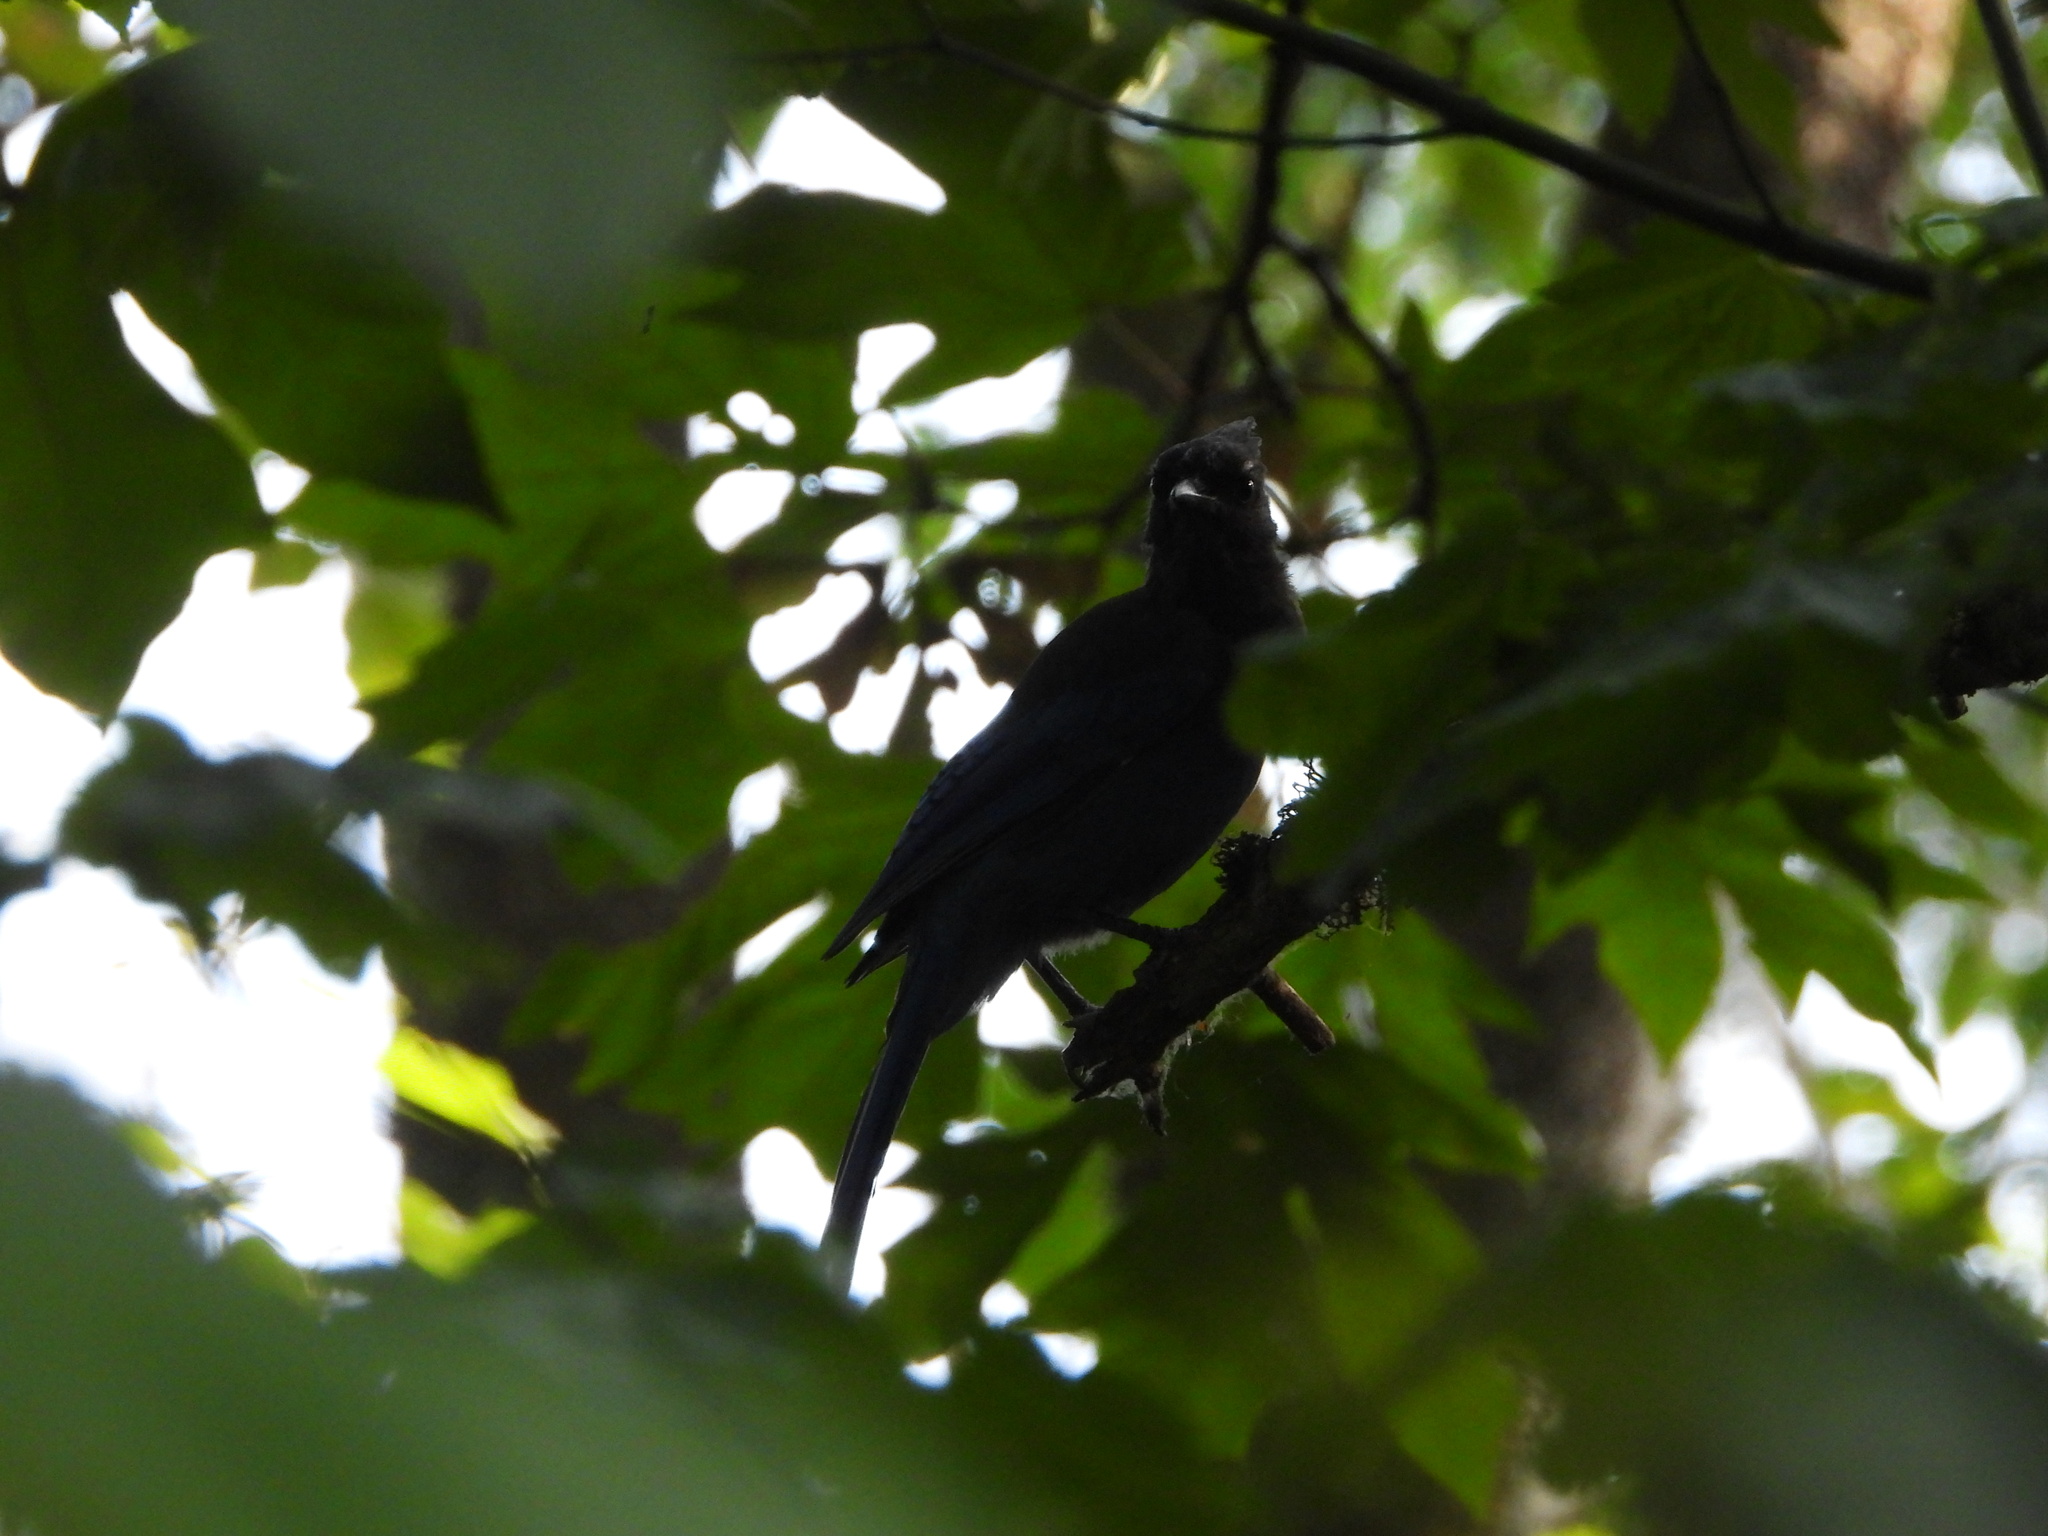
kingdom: Animalia
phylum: Chordata
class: Aves
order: Passeriformes
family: Corvidae
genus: Cyanocitta
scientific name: Cyanocitta stelleri
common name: Steller's jay
